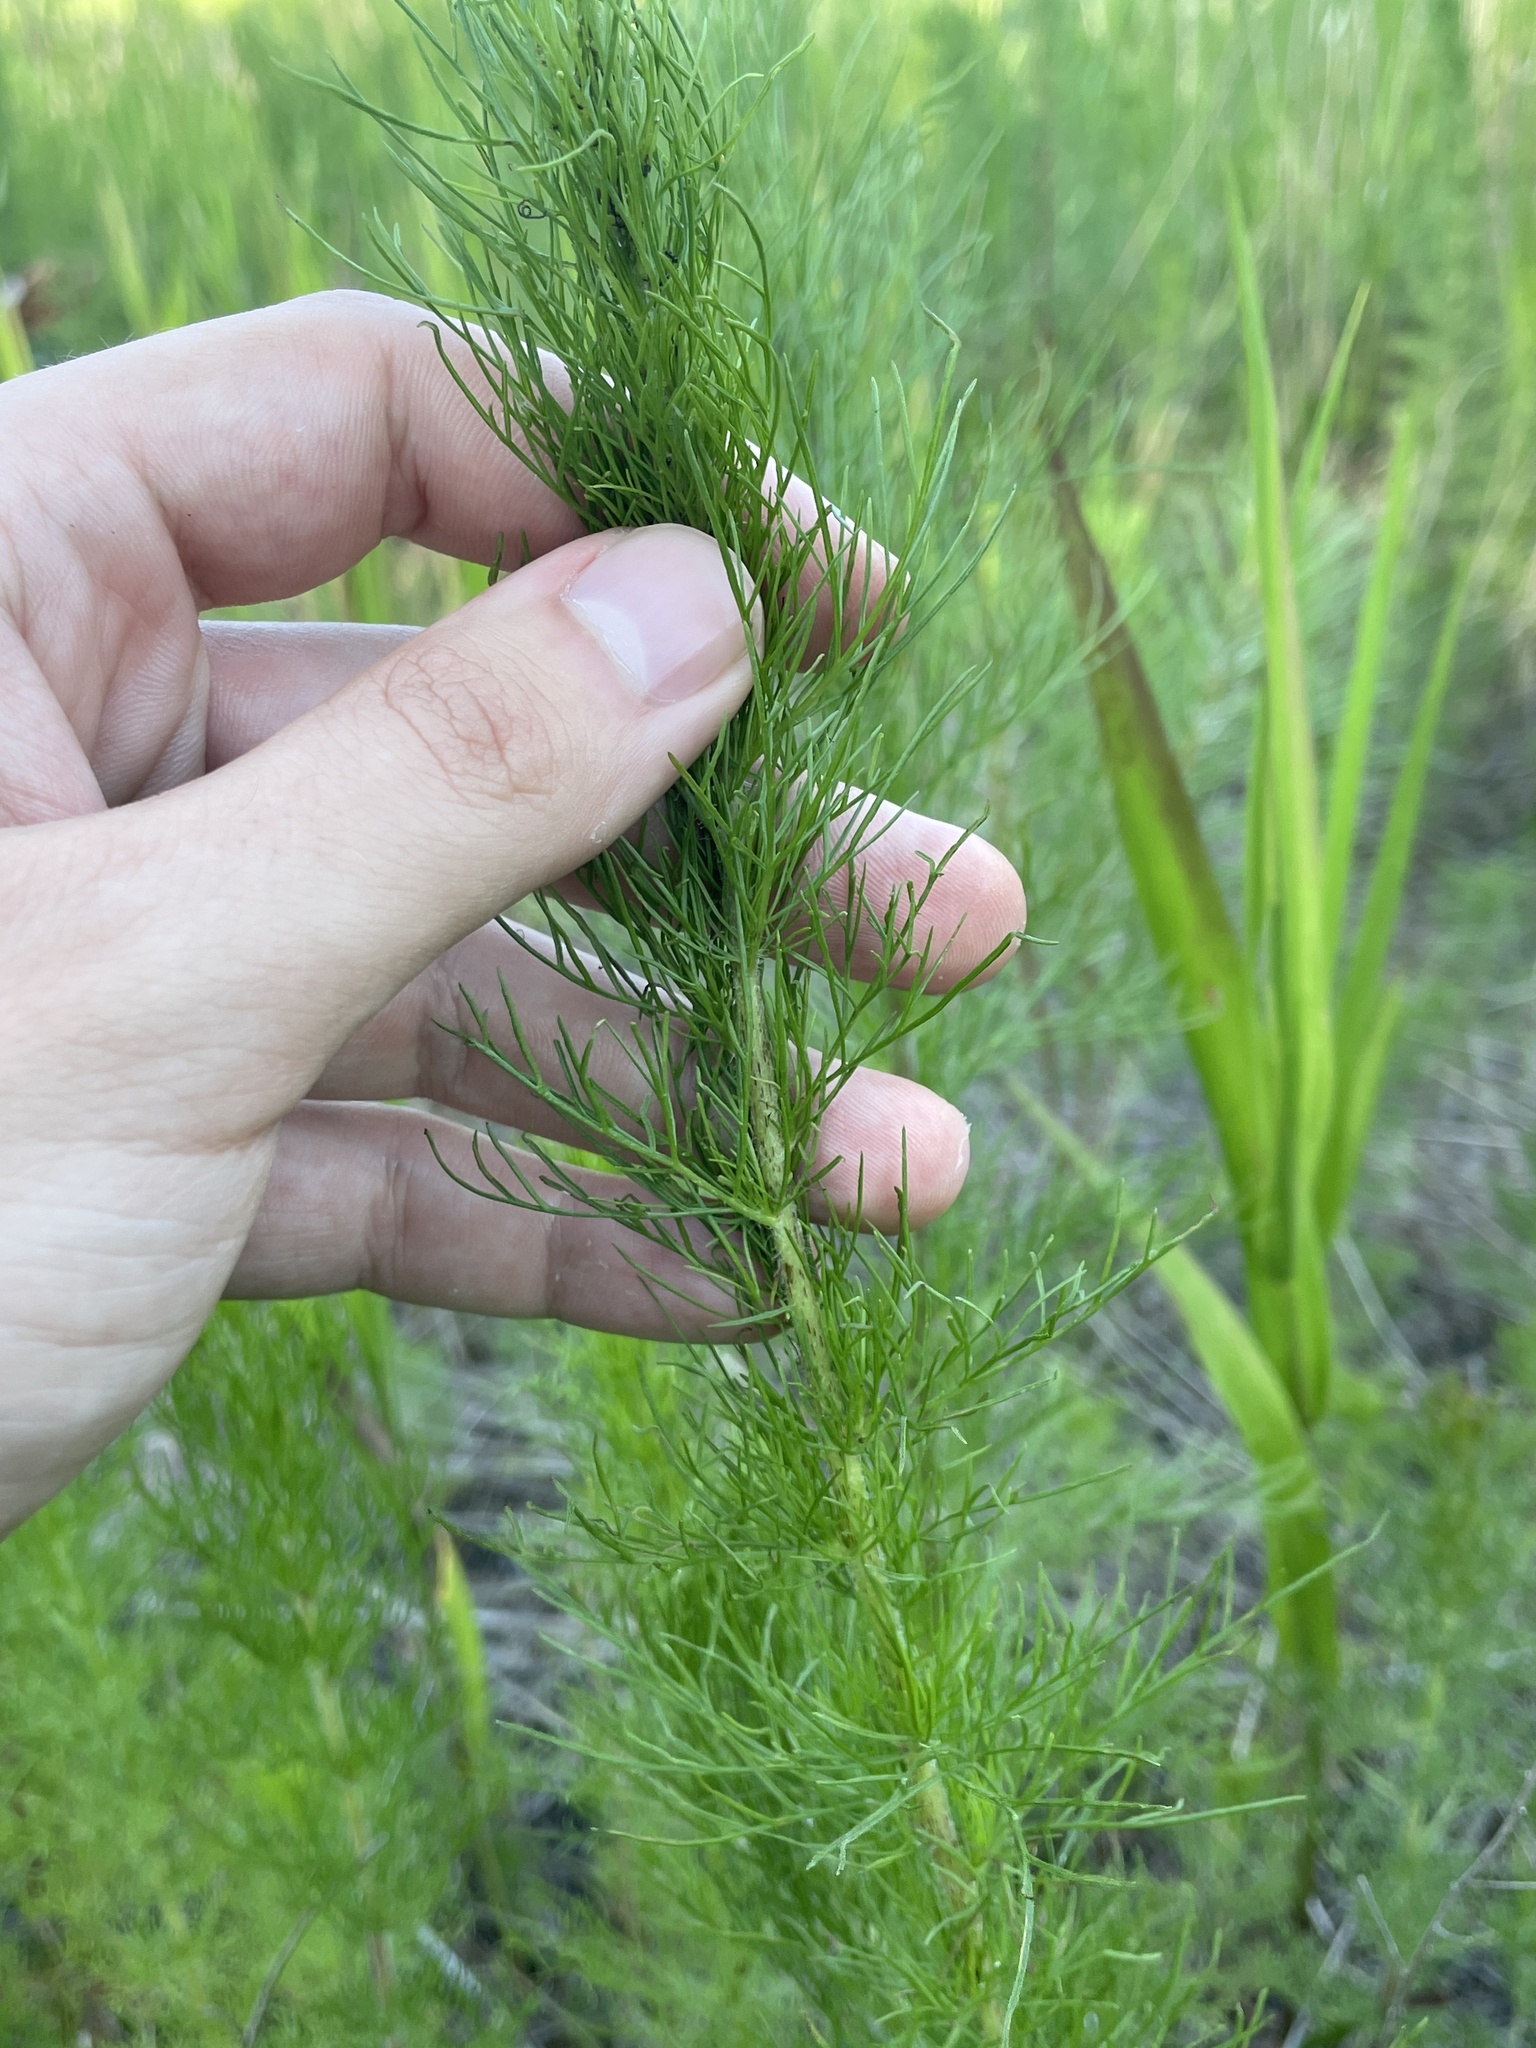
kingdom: Plantae
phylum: Tracheophyta
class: Magnoliopsida
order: Asterales
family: Asteraceae
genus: Eupatorium
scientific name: Eupatorium capillifolium
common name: Dog-fennel
